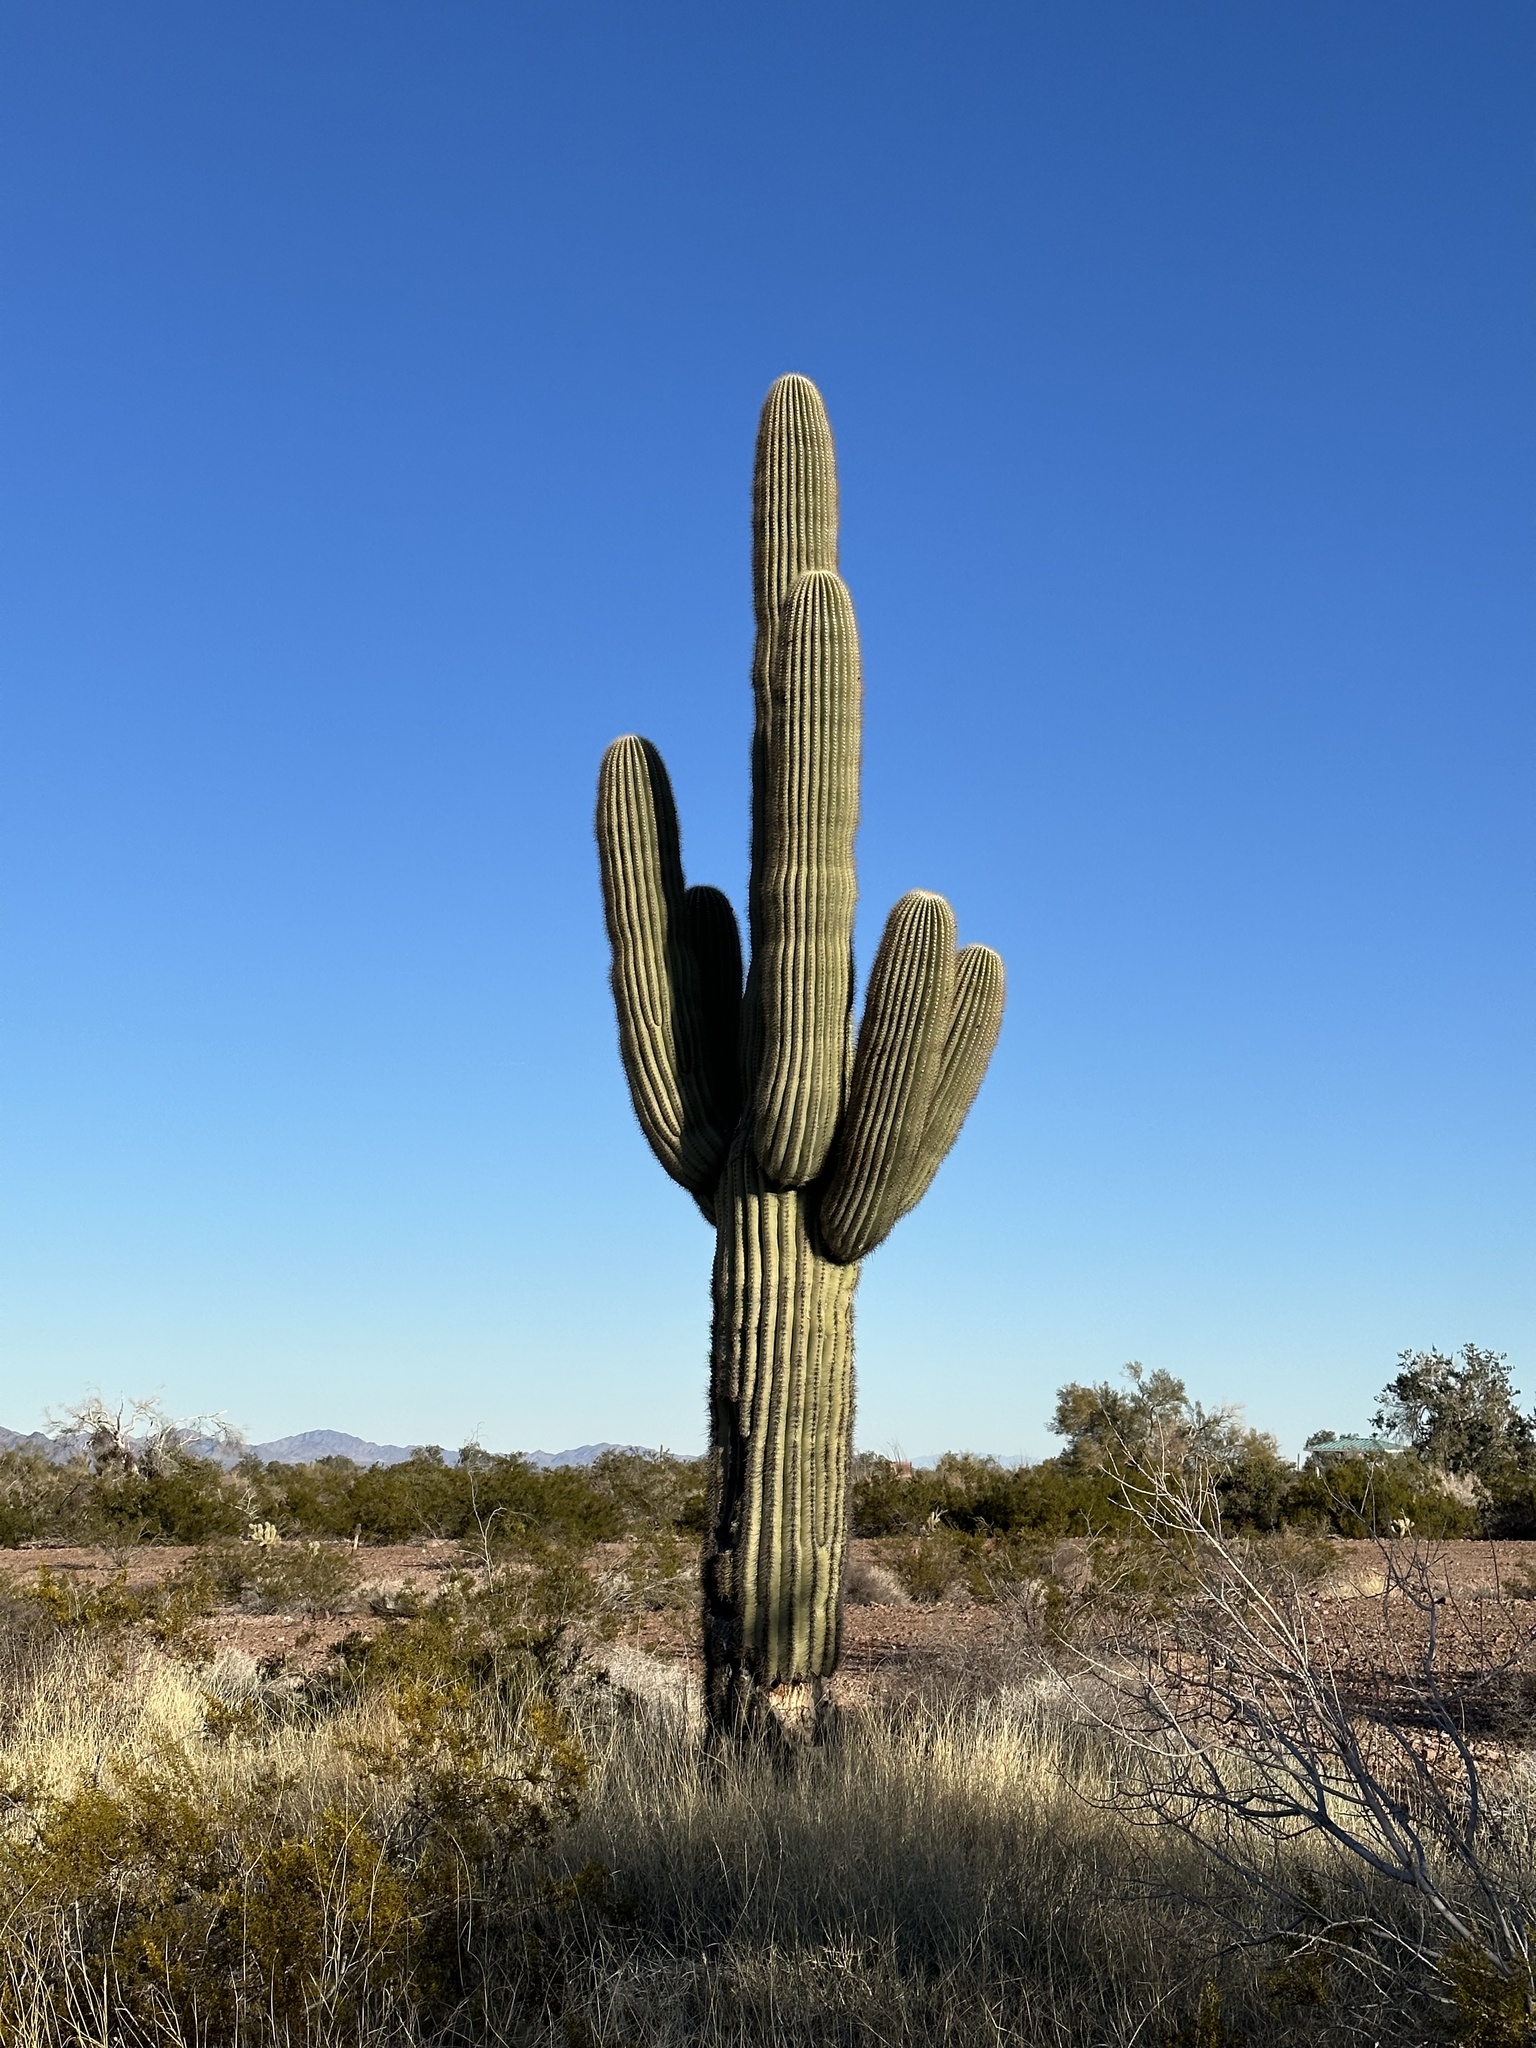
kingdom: Plantae
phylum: Tracheophyta
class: Magnoliopsida
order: Caryophyllales
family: Cactaceae
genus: Carnegiea
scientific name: Carnegiea gigantea
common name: Saguaro
